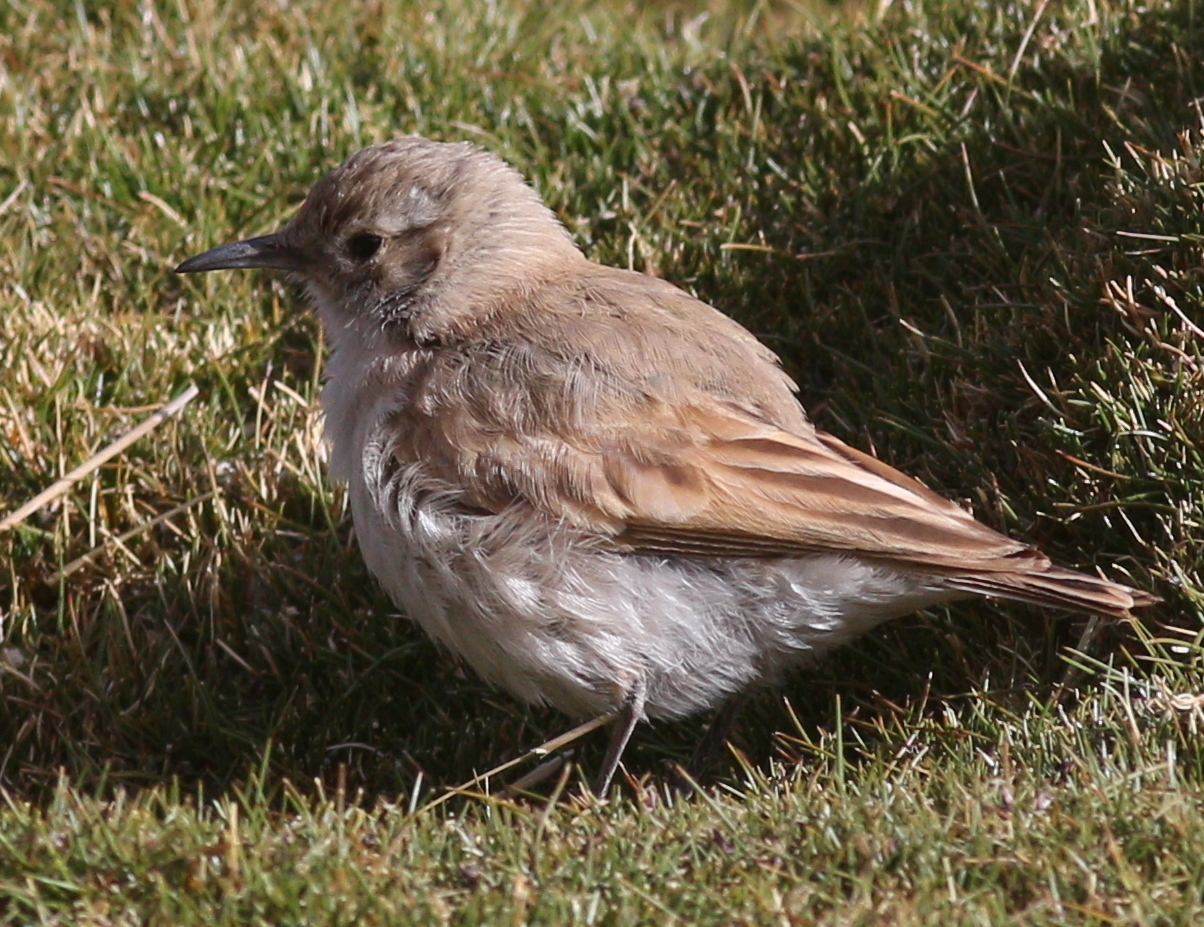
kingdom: Animalia
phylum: Chordata
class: Aves
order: Passeriformes
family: Furnariidae
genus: Geositta
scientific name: Geositta punensis
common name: Puna miner
